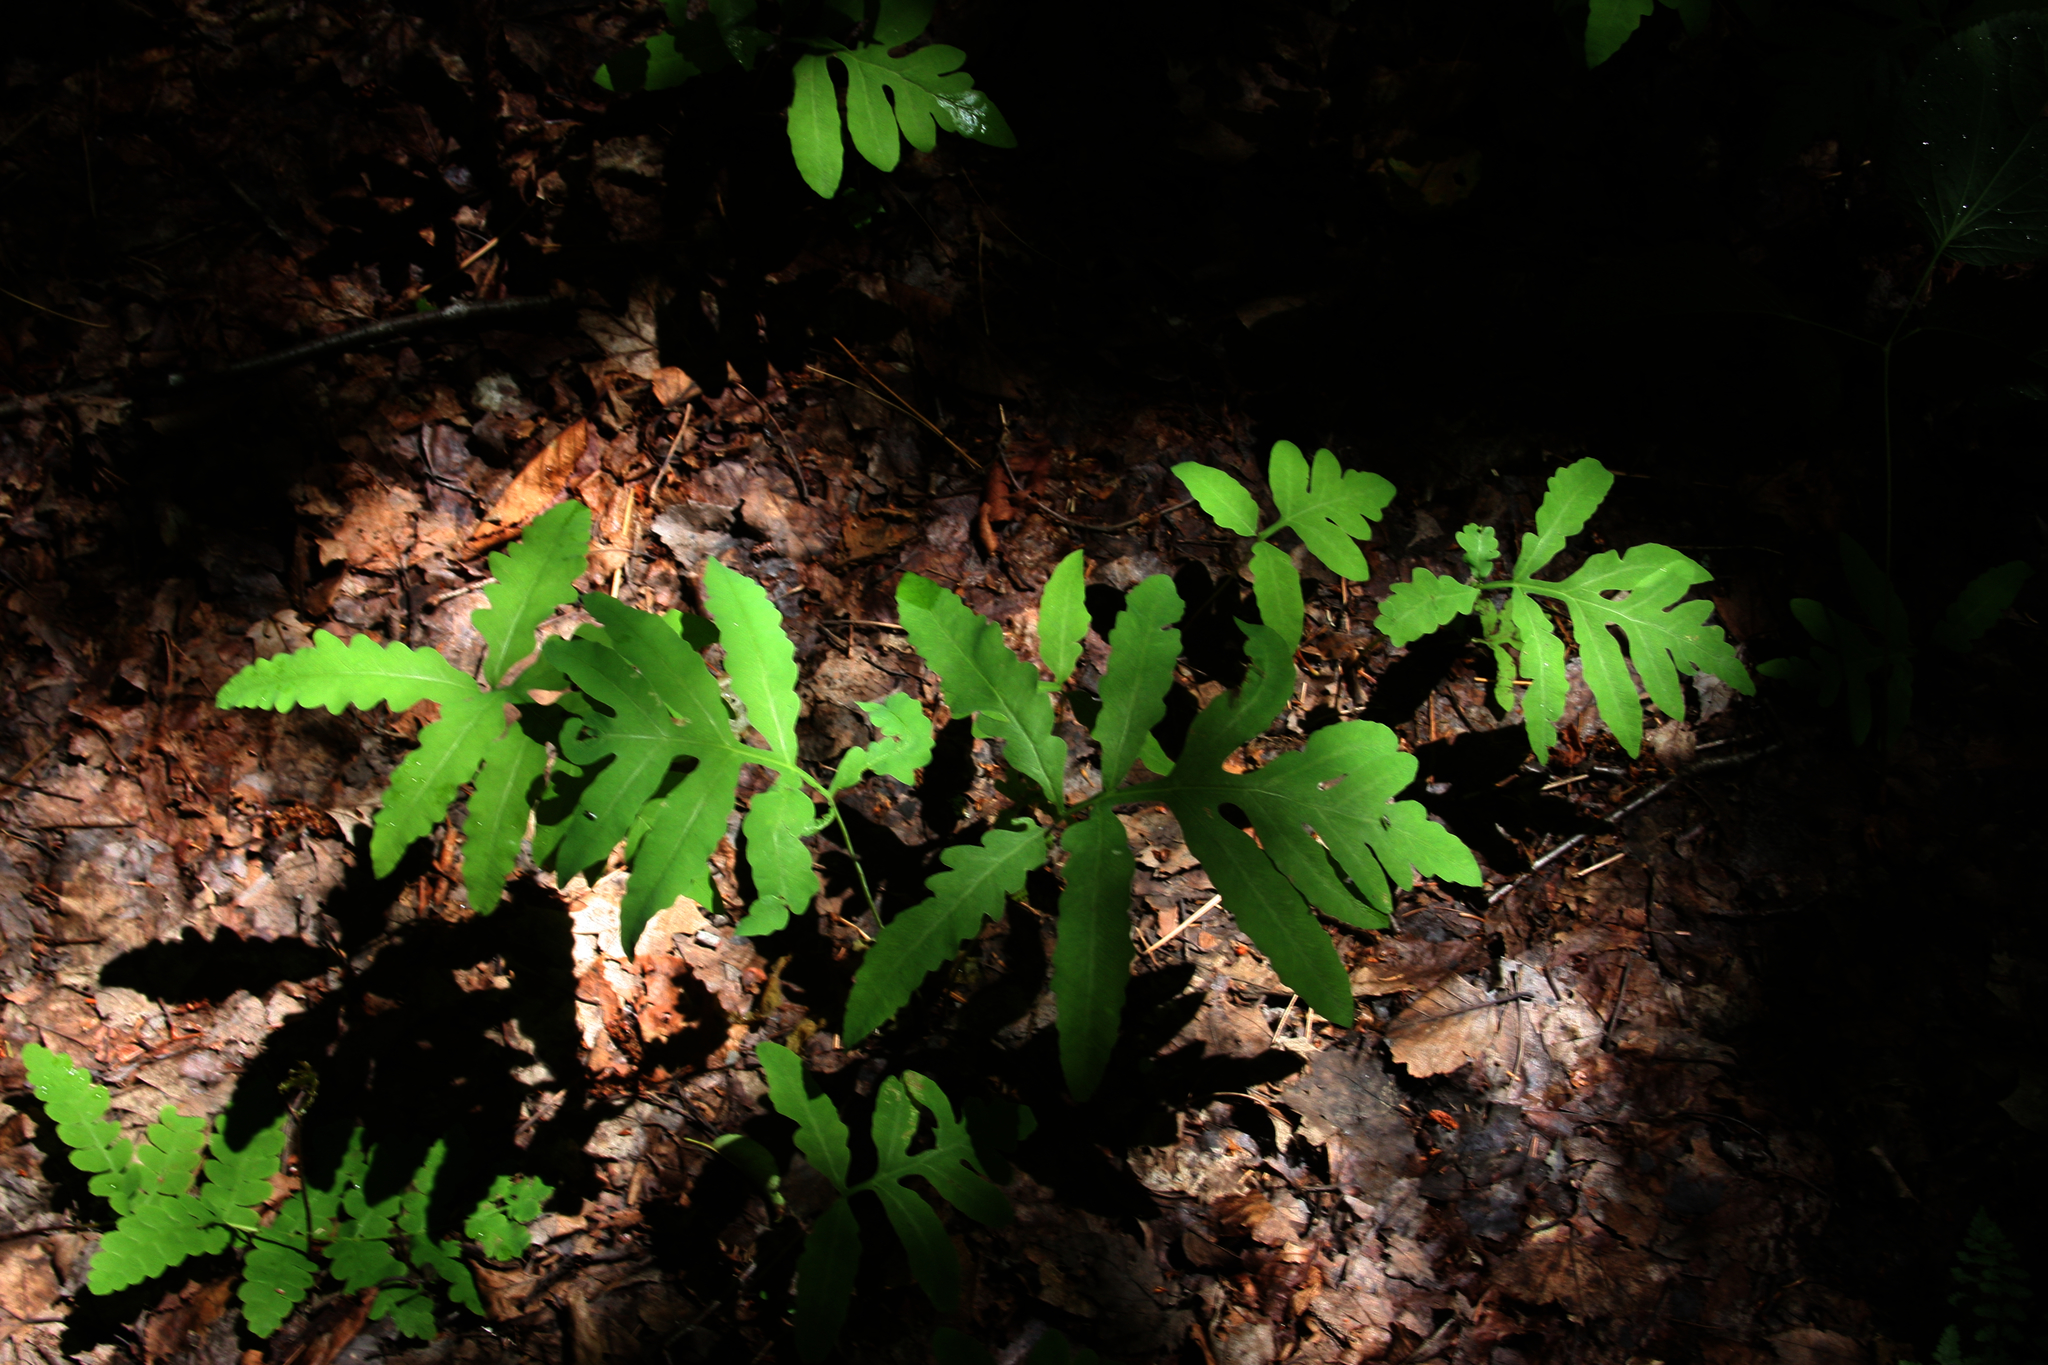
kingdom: Plantae
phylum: Tracheophyta
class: Polypodiopsida
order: Polypodiales
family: Onocleaceae
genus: Onoclea
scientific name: Onoclea sensibilis
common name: Sensitive fern
